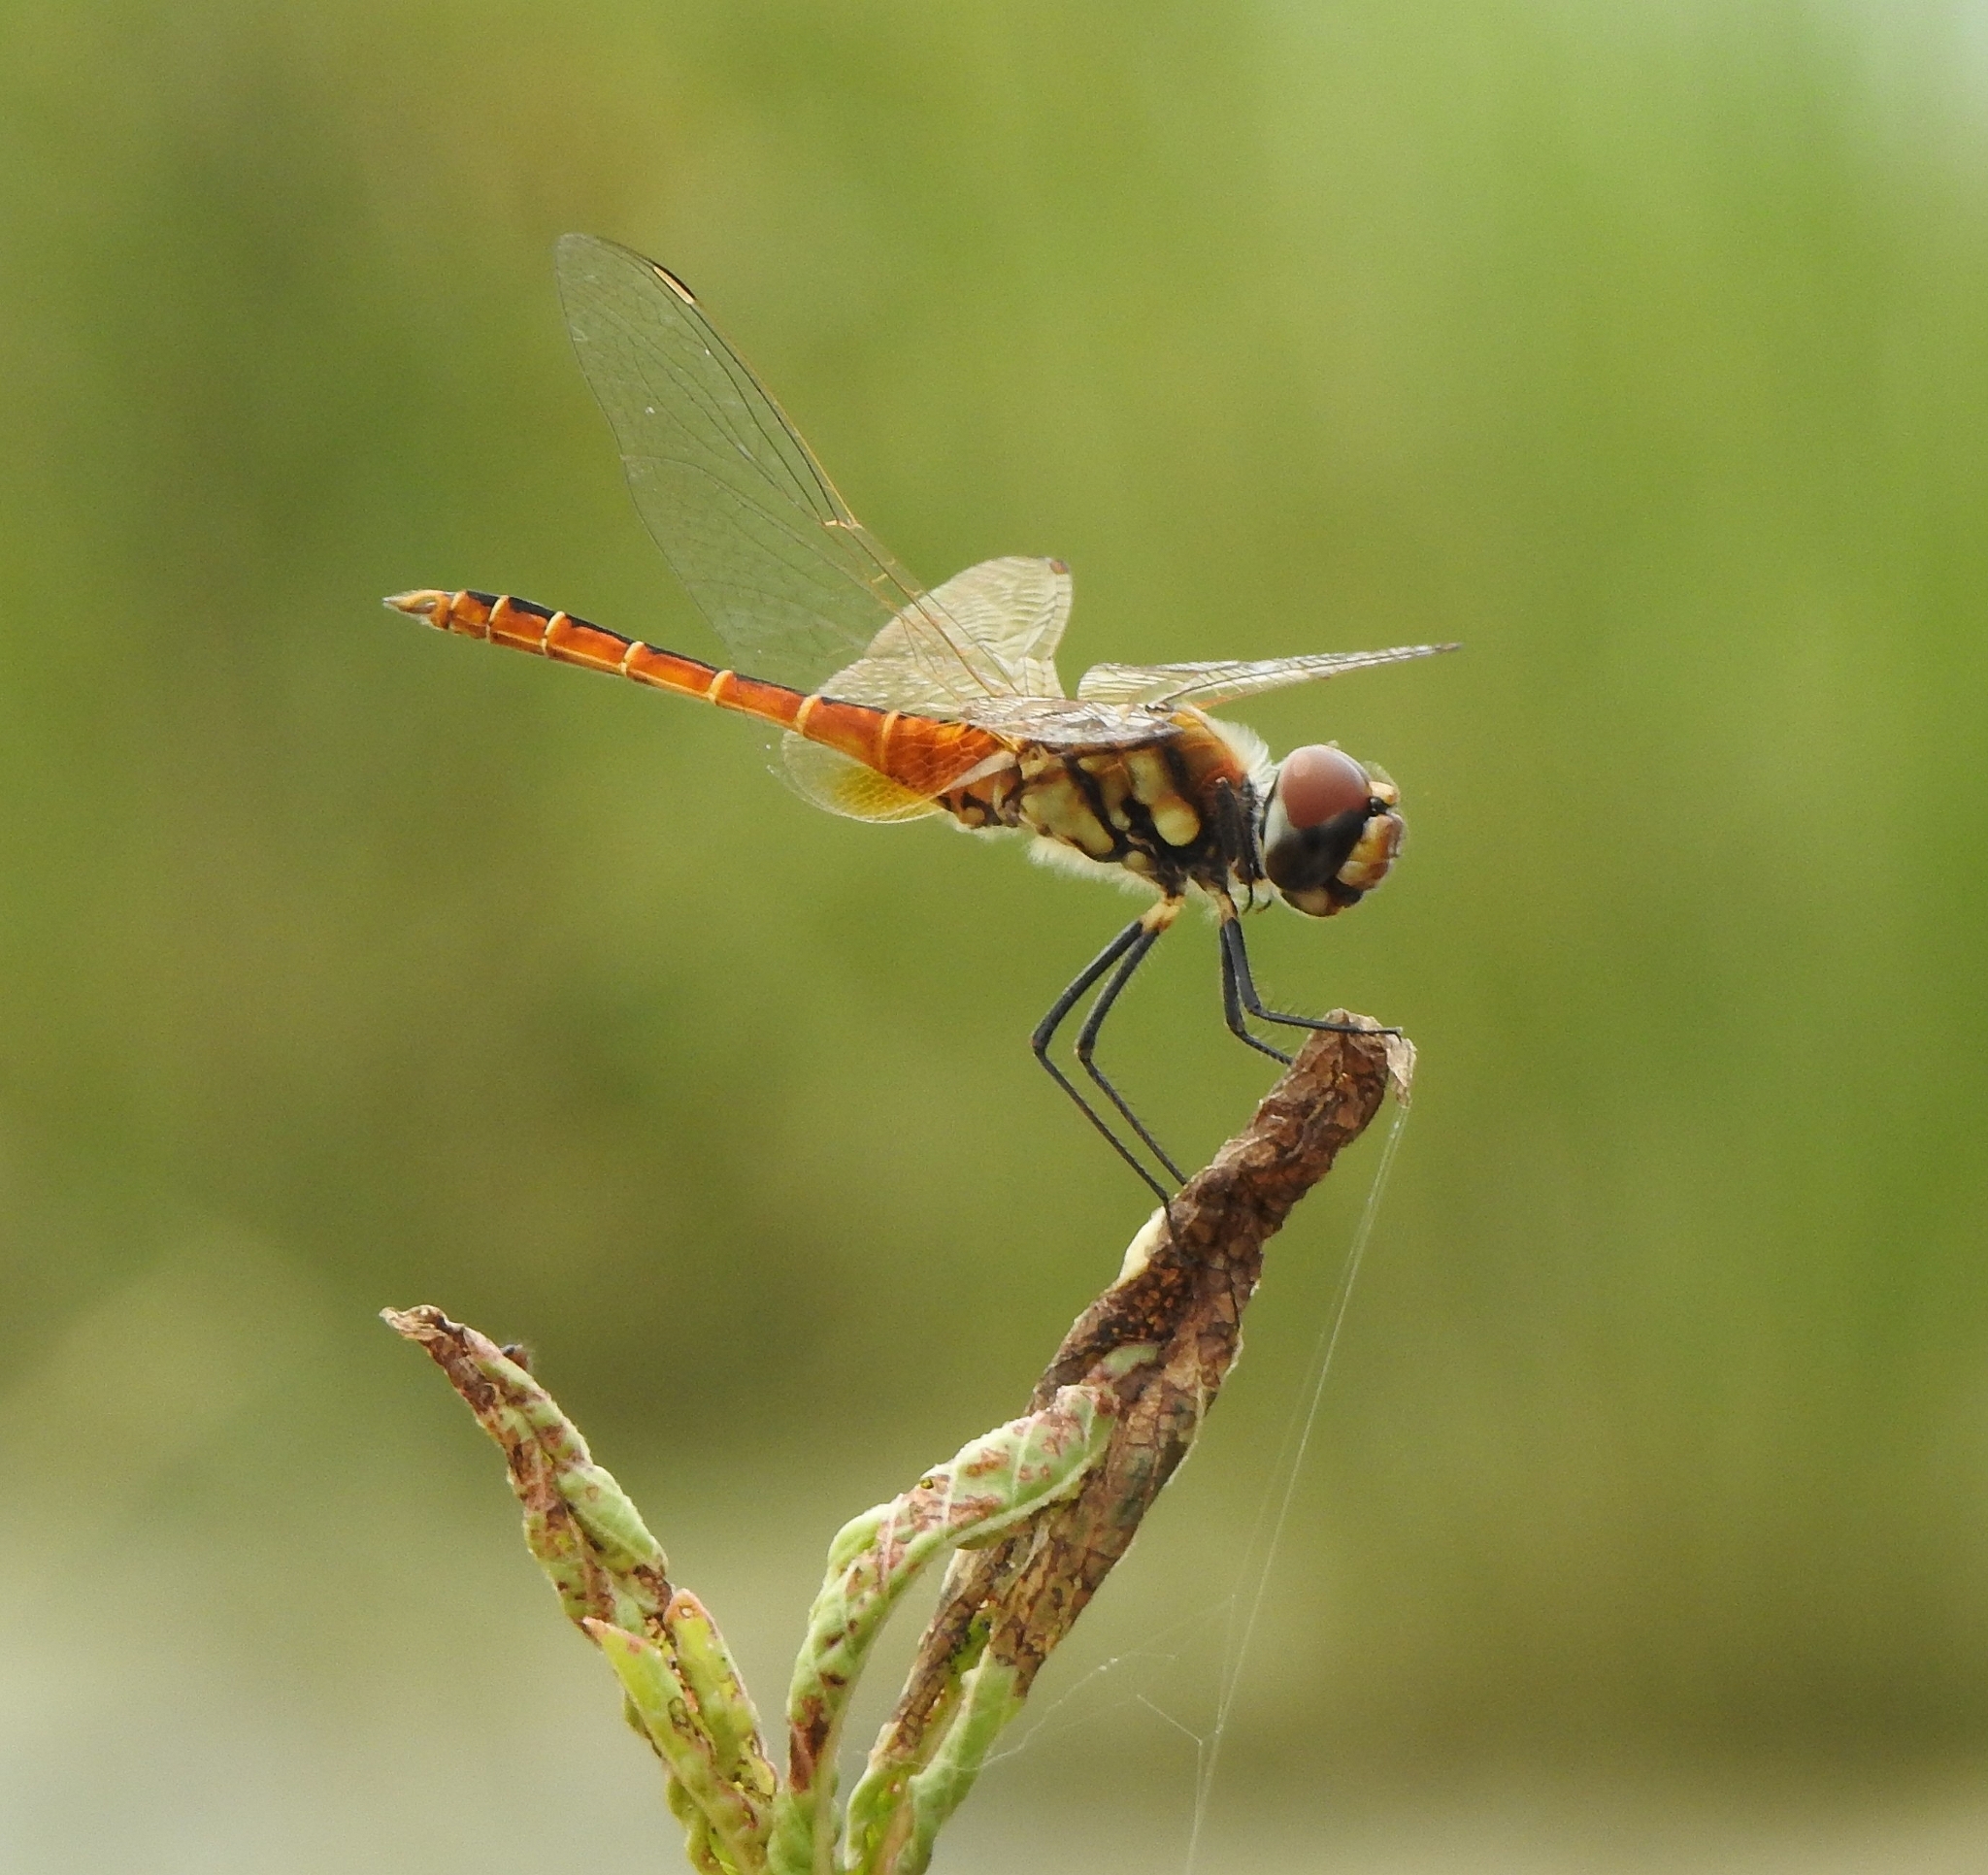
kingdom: Animalia
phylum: Arthropoda
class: Insecta
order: Odonata
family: Libellulidae
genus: Macrodiplax
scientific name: Macrodiplax cora
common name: Coastal glider
